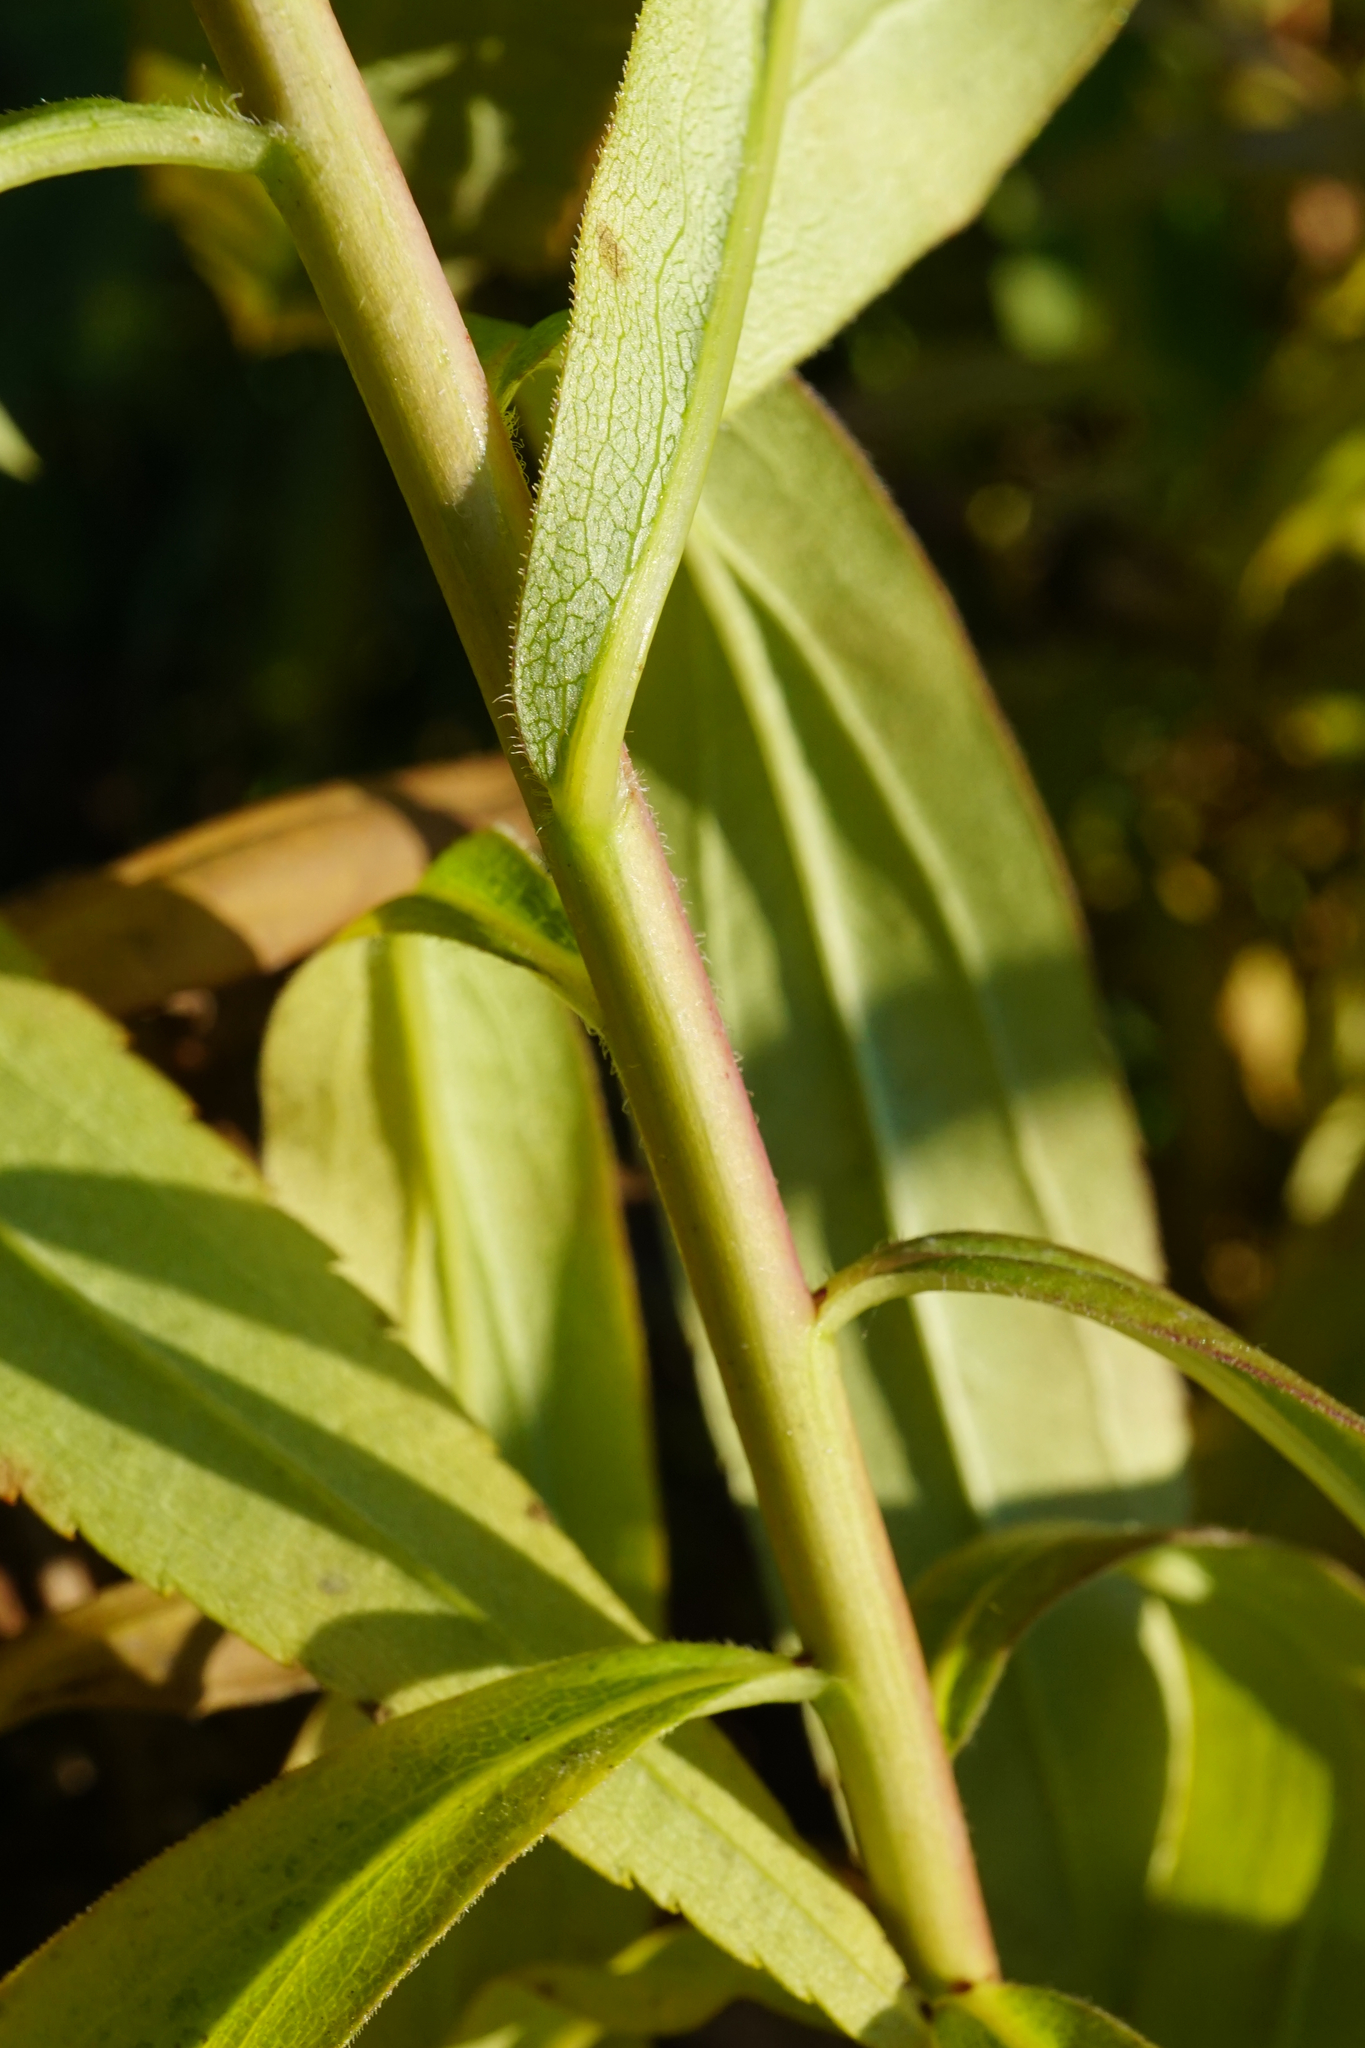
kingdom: Plantae
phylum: Tracheophyta
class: Magnoliopsida
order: Asterales
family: Asteraceae
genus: Solidago
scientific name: Solidago gigantea
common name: Giant goldenrod
